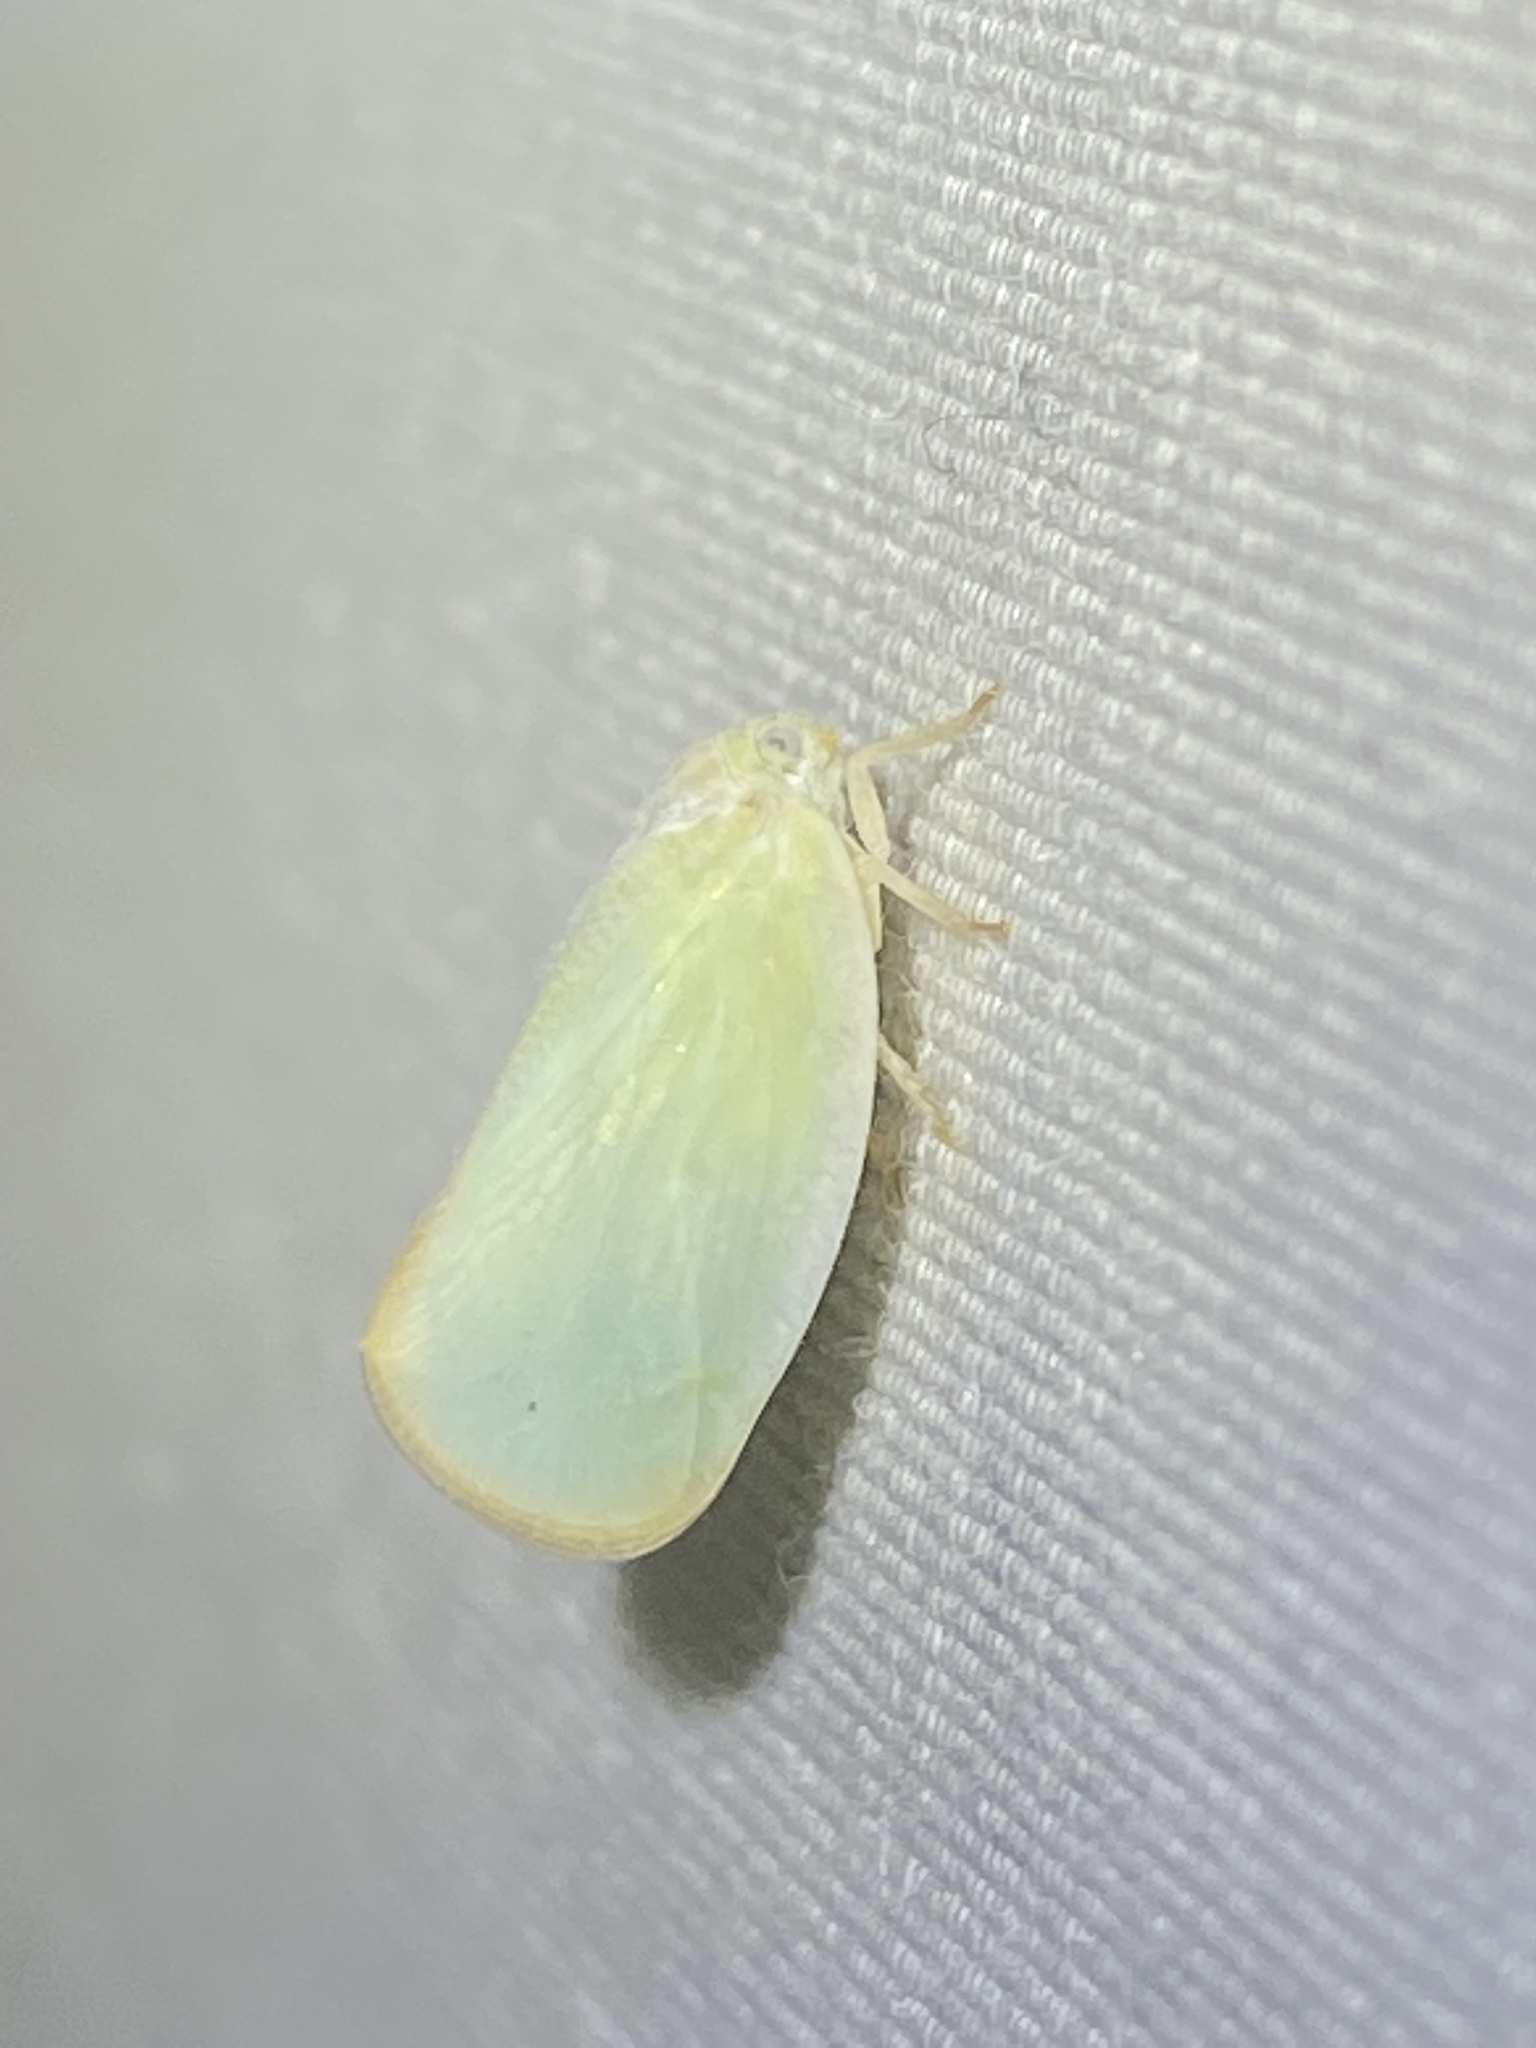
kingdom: Animalia
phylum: Arthropoda
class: Insecta
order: Hemiptera
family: Flatidae
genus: Ormenoides
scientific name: Ormenoides venusta
